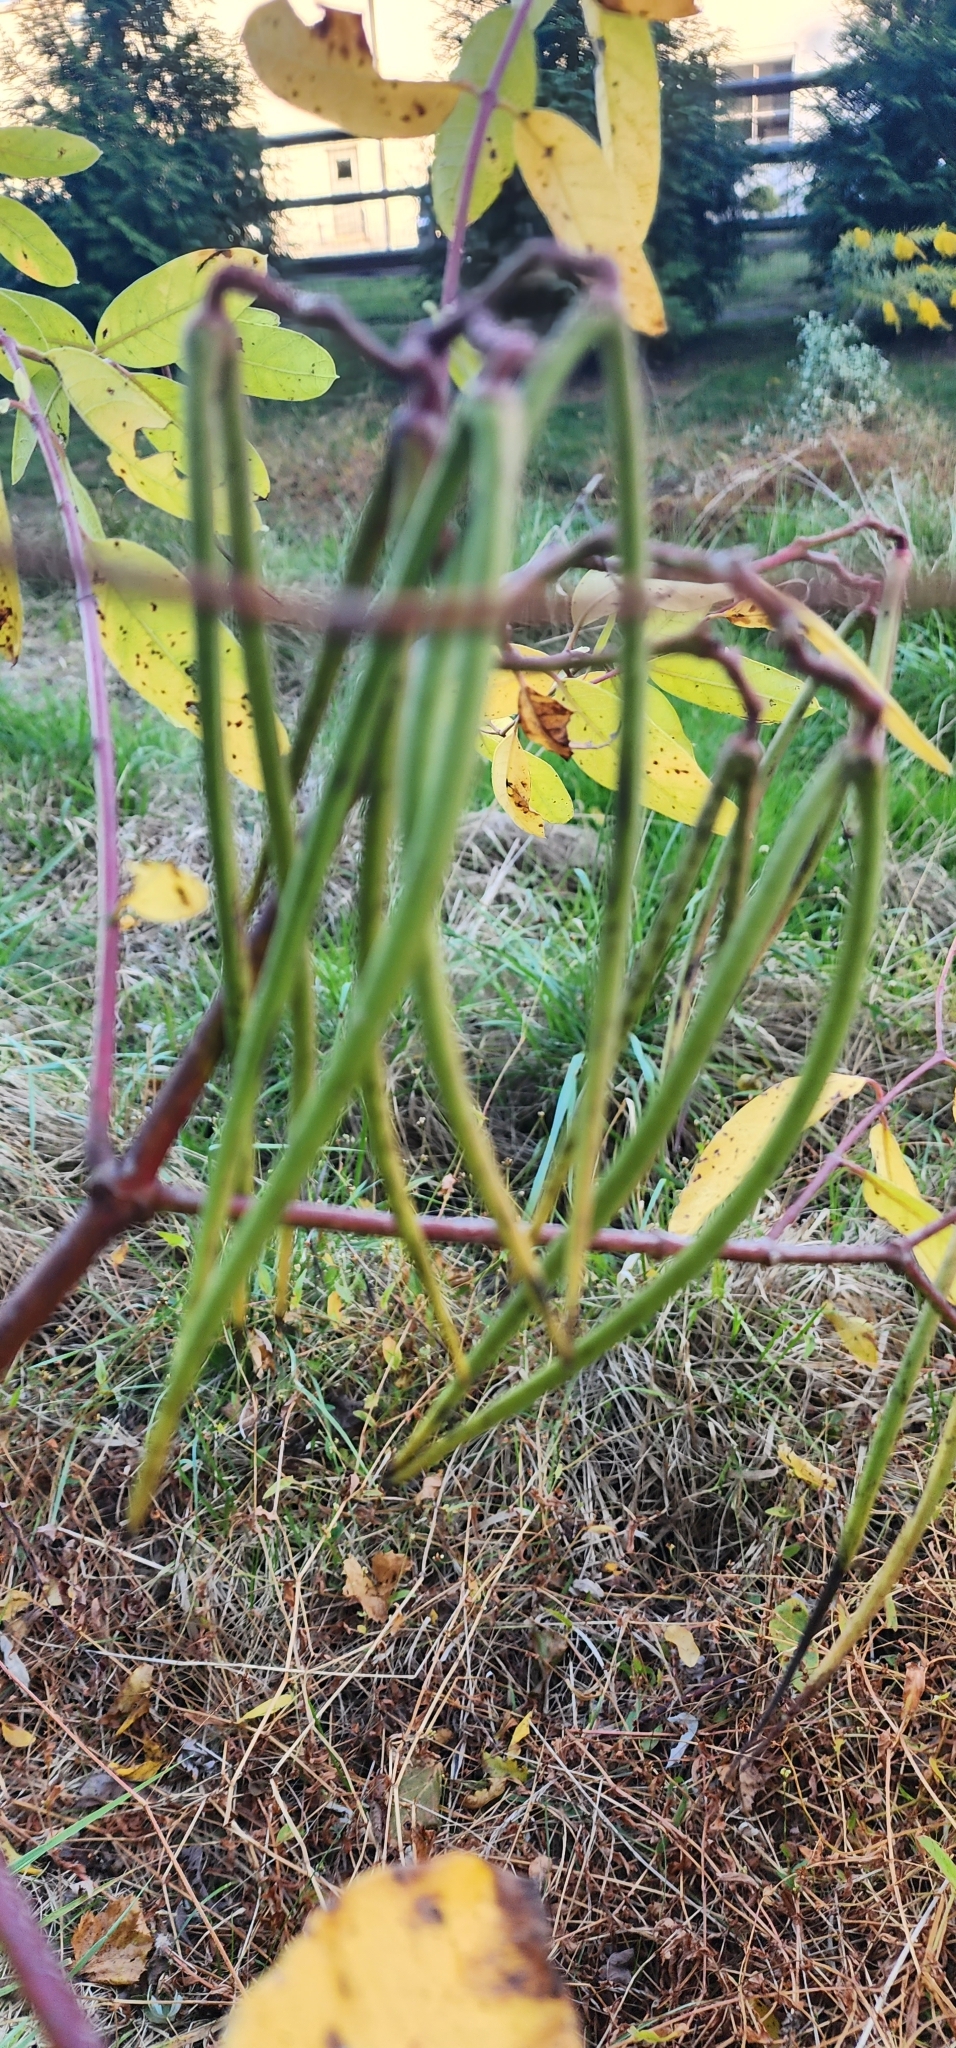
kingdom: Plantae
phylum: Tracheophyta
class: Magnoliopsida
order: Gentianales
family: Apocynaceae
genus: Apocynum
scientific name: Apocynum cannabinum
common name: Hemp dogbane
